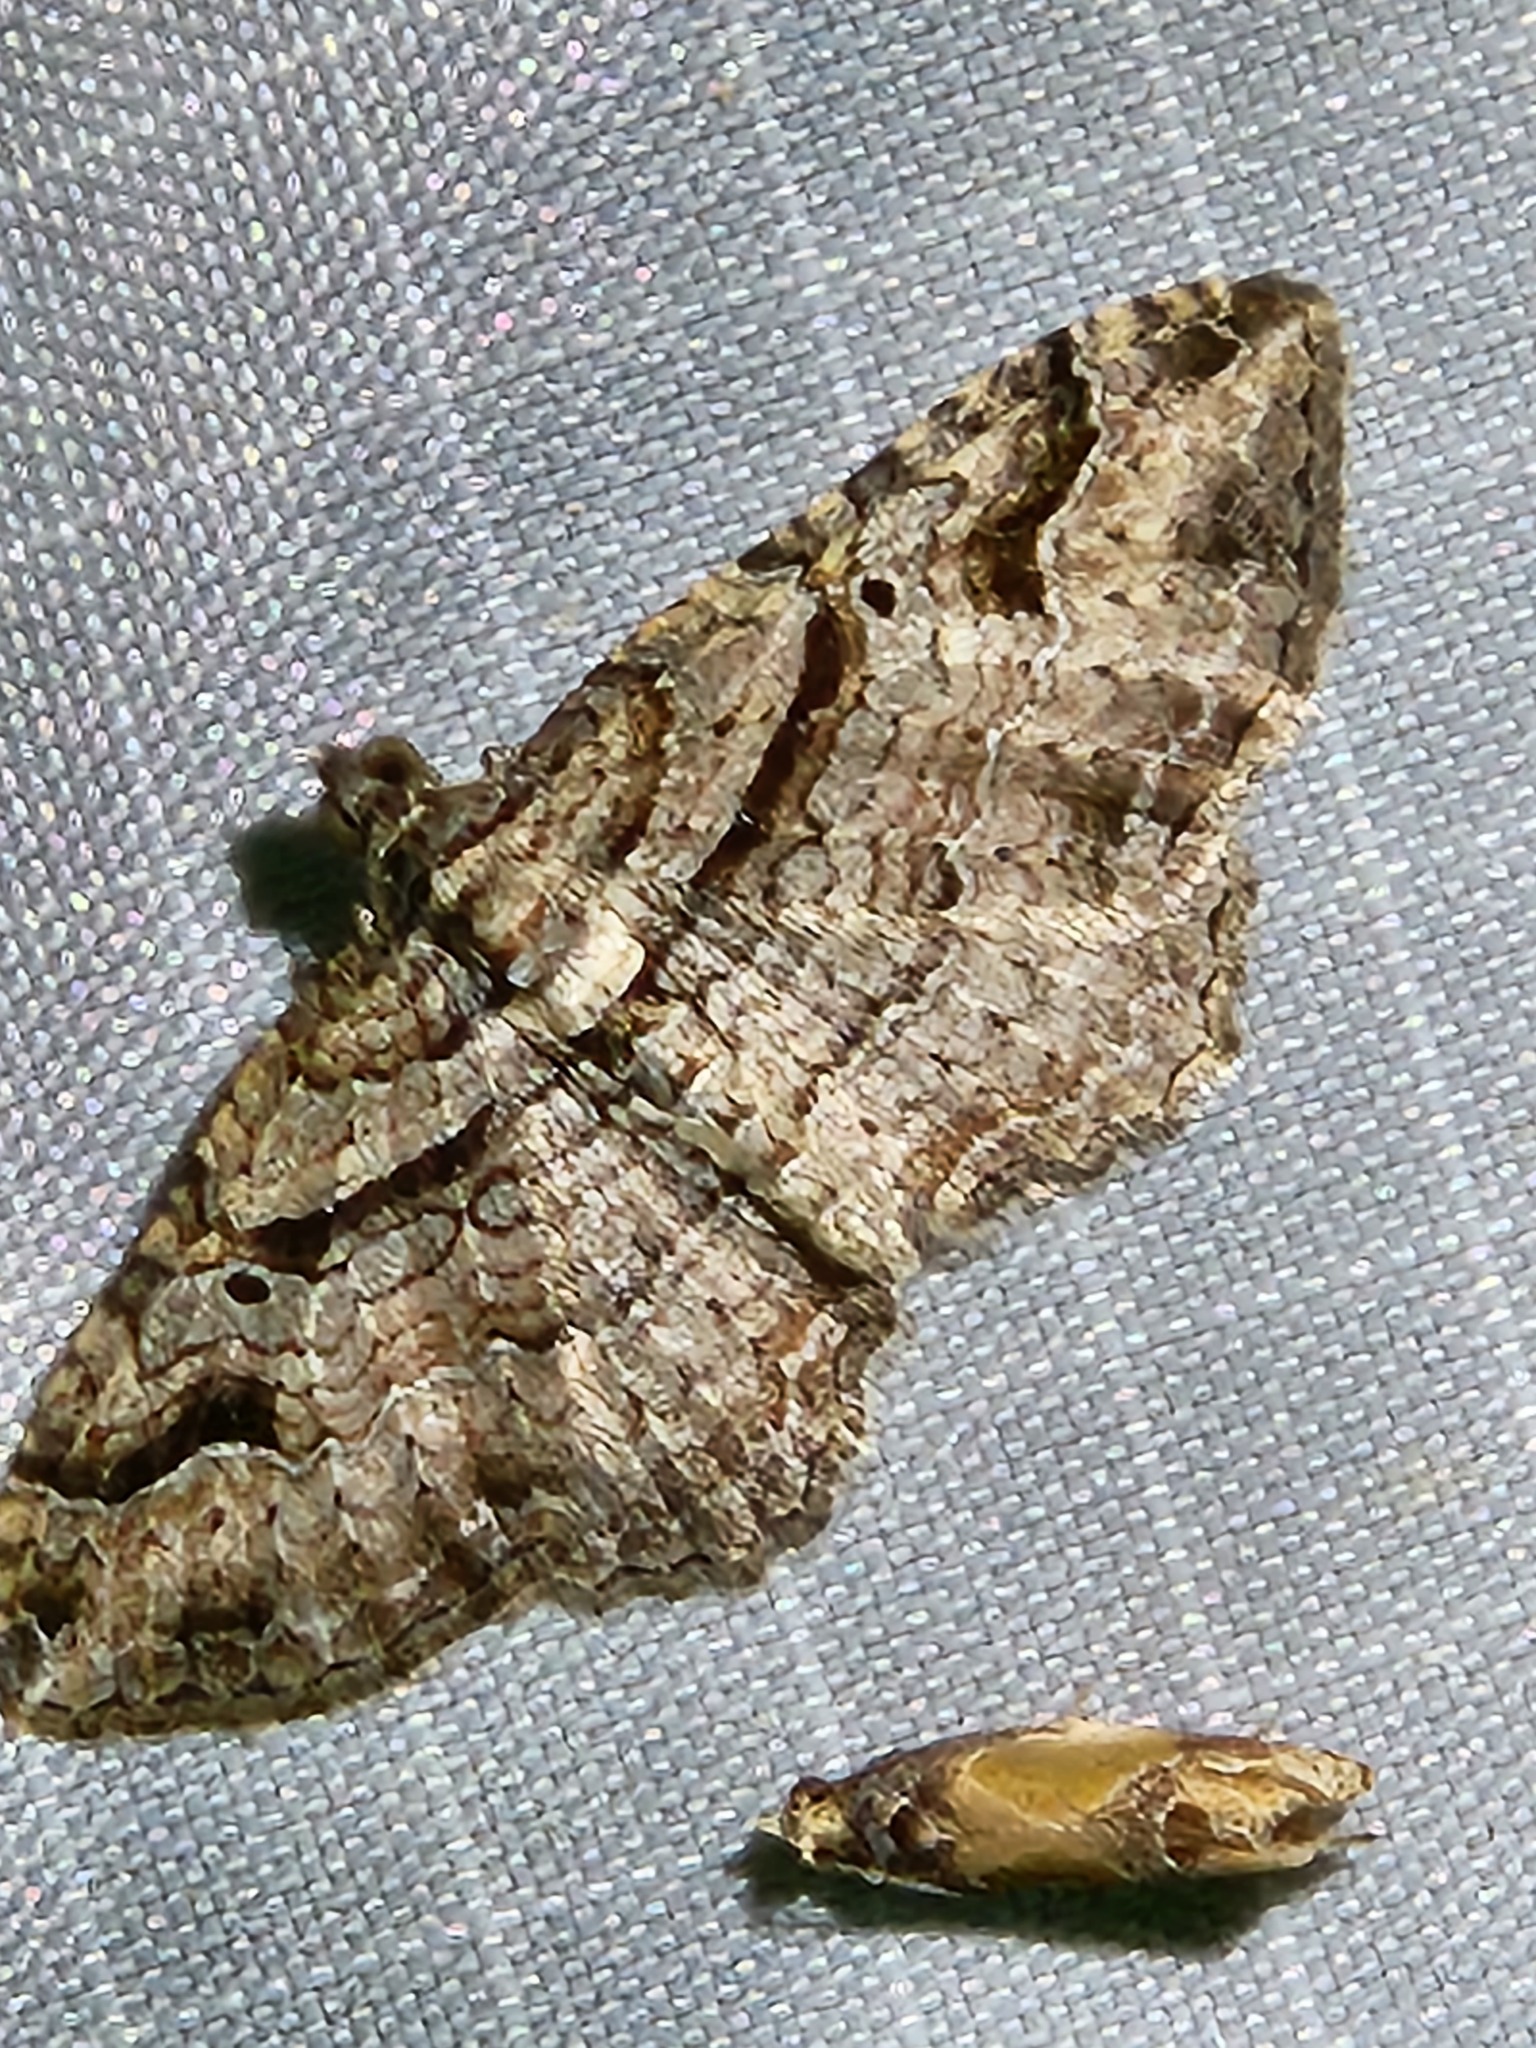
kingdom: Animalia
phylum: Arthropoda
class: Insecta
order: Lepidoptera
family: Geometridae
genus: Costaconvexa
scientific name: Costaconvexa centrostrigaria
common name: Bent-line carpet
